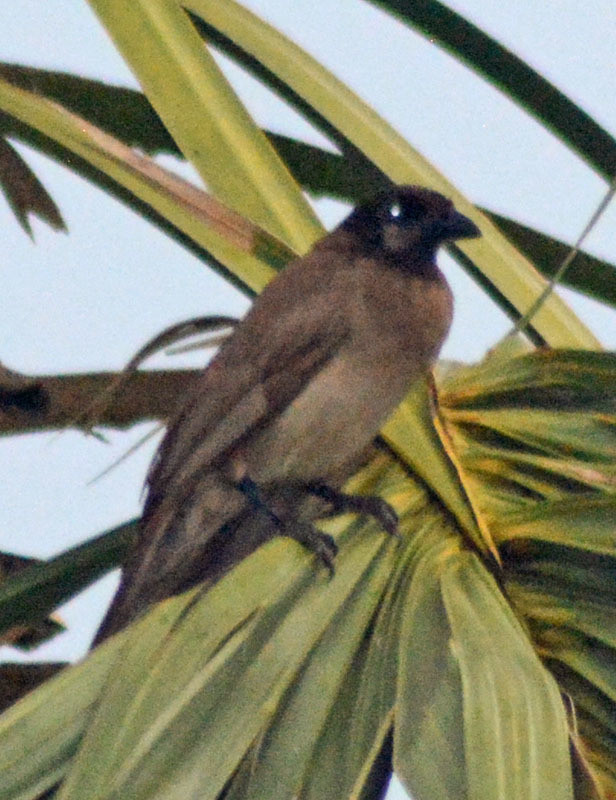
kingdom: Animalia
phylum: Chordata
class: Aves
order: Passeriformes
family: Corvidae
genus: Psilorhinus
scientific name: Psilorhinus morio
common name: Brown jay
